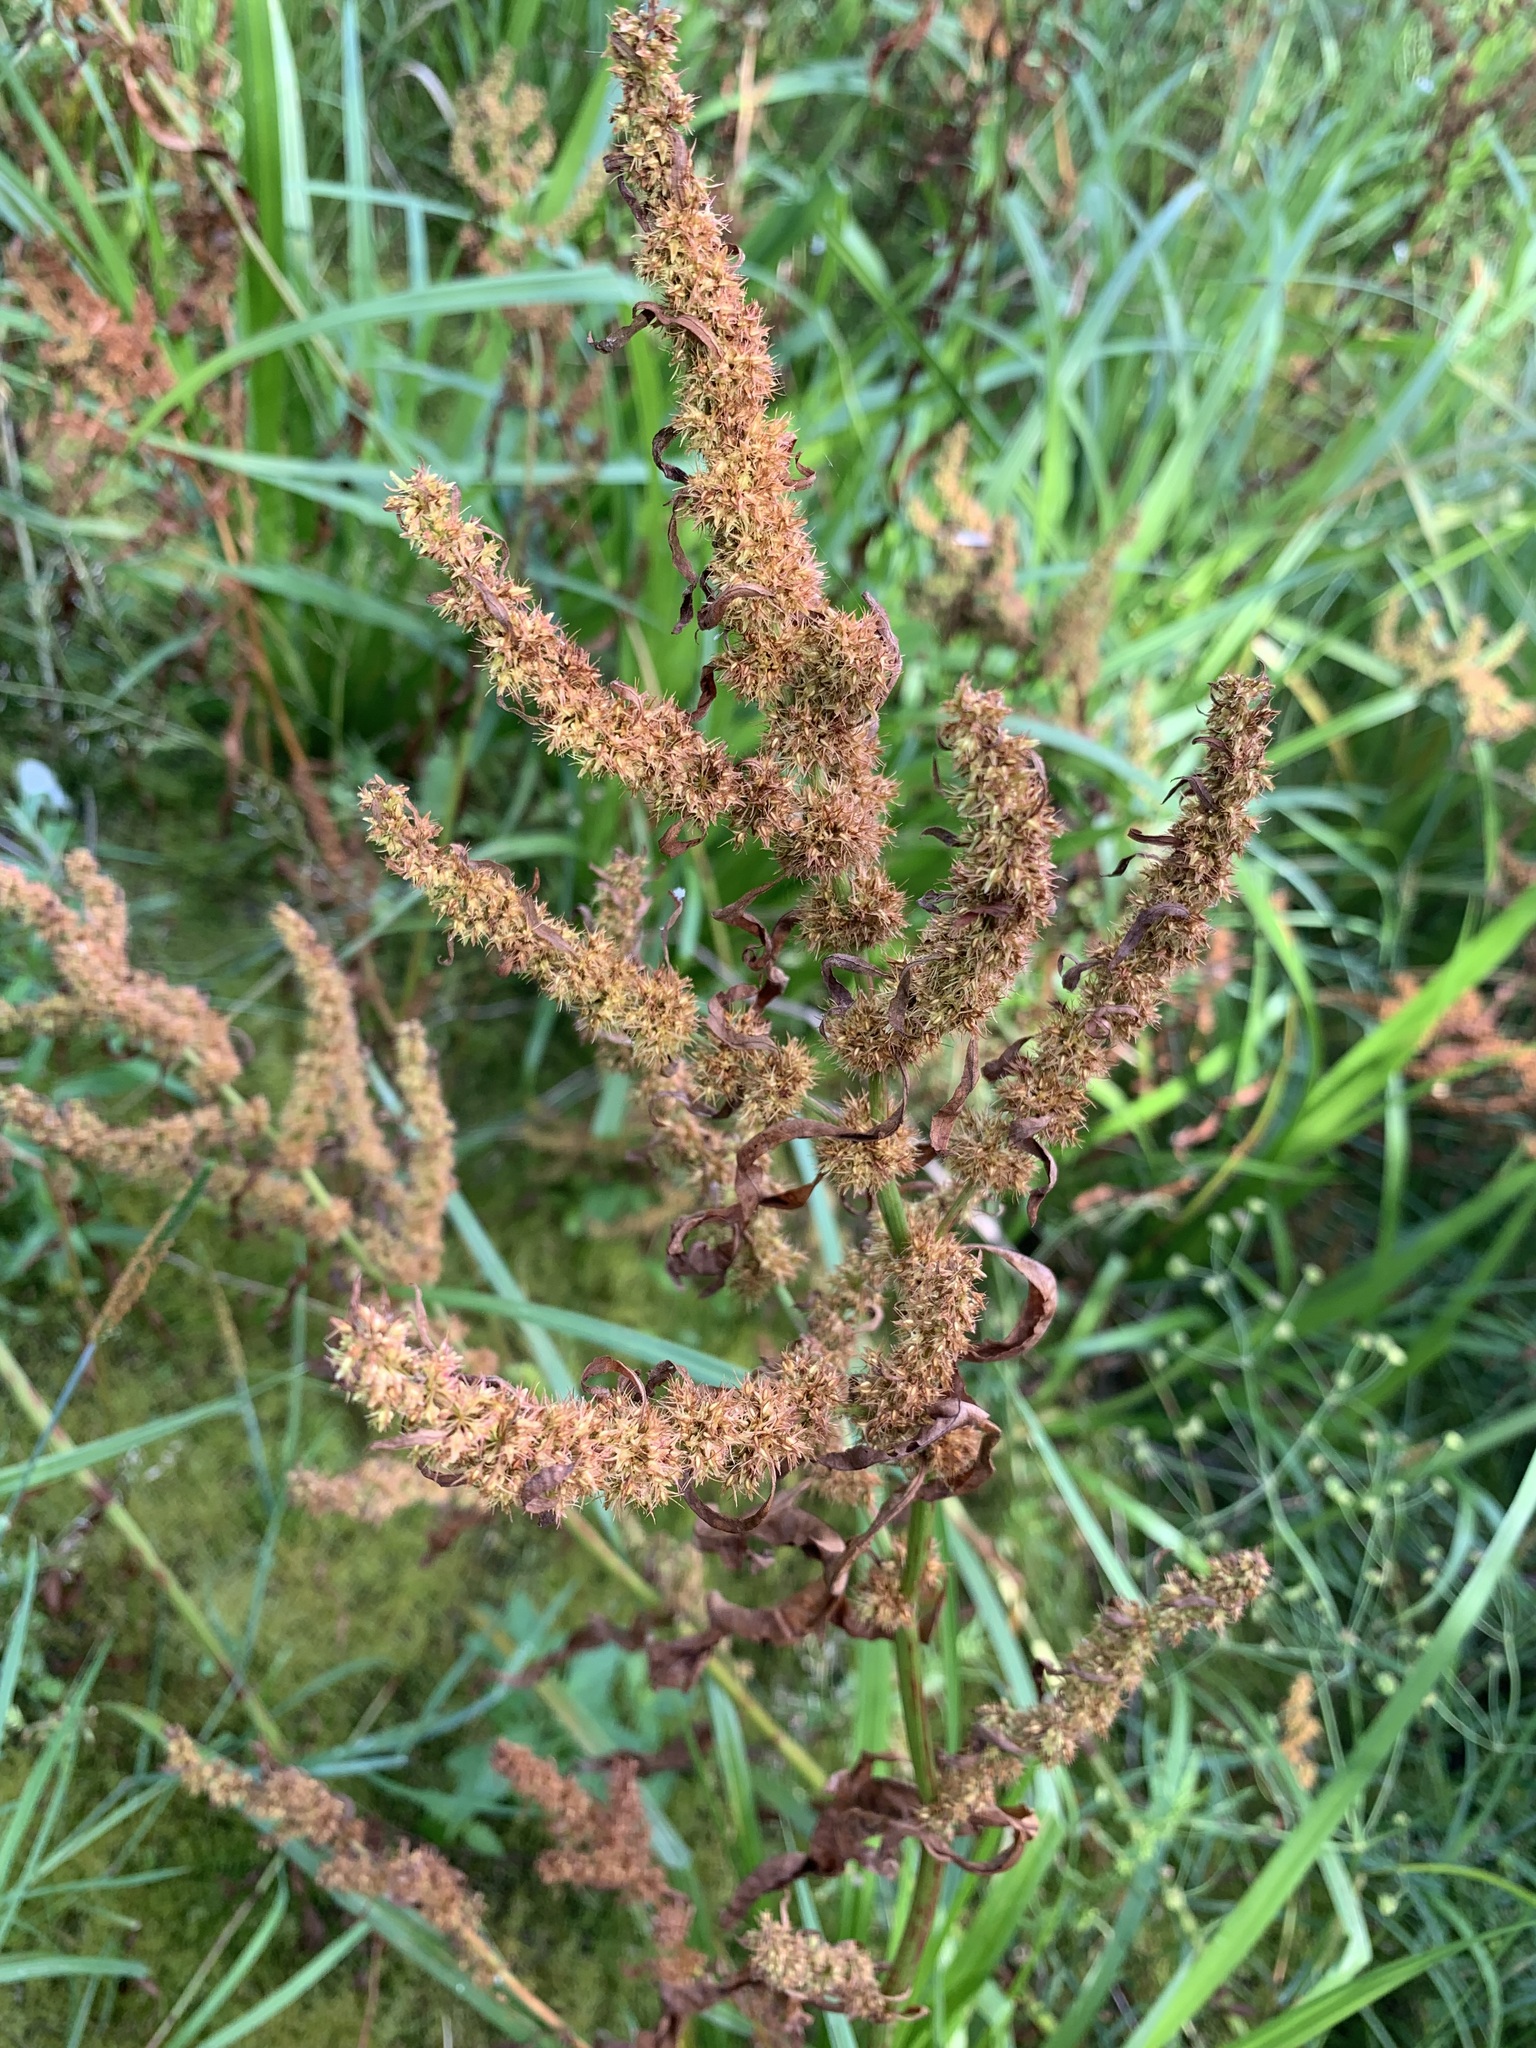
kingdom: Plantae
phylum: Tracheophyta
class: Magnoliopsida
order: Caryophyllales
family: Polygonaceae
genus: Rumex
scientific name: Rumex maritimus
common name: Golden dock
